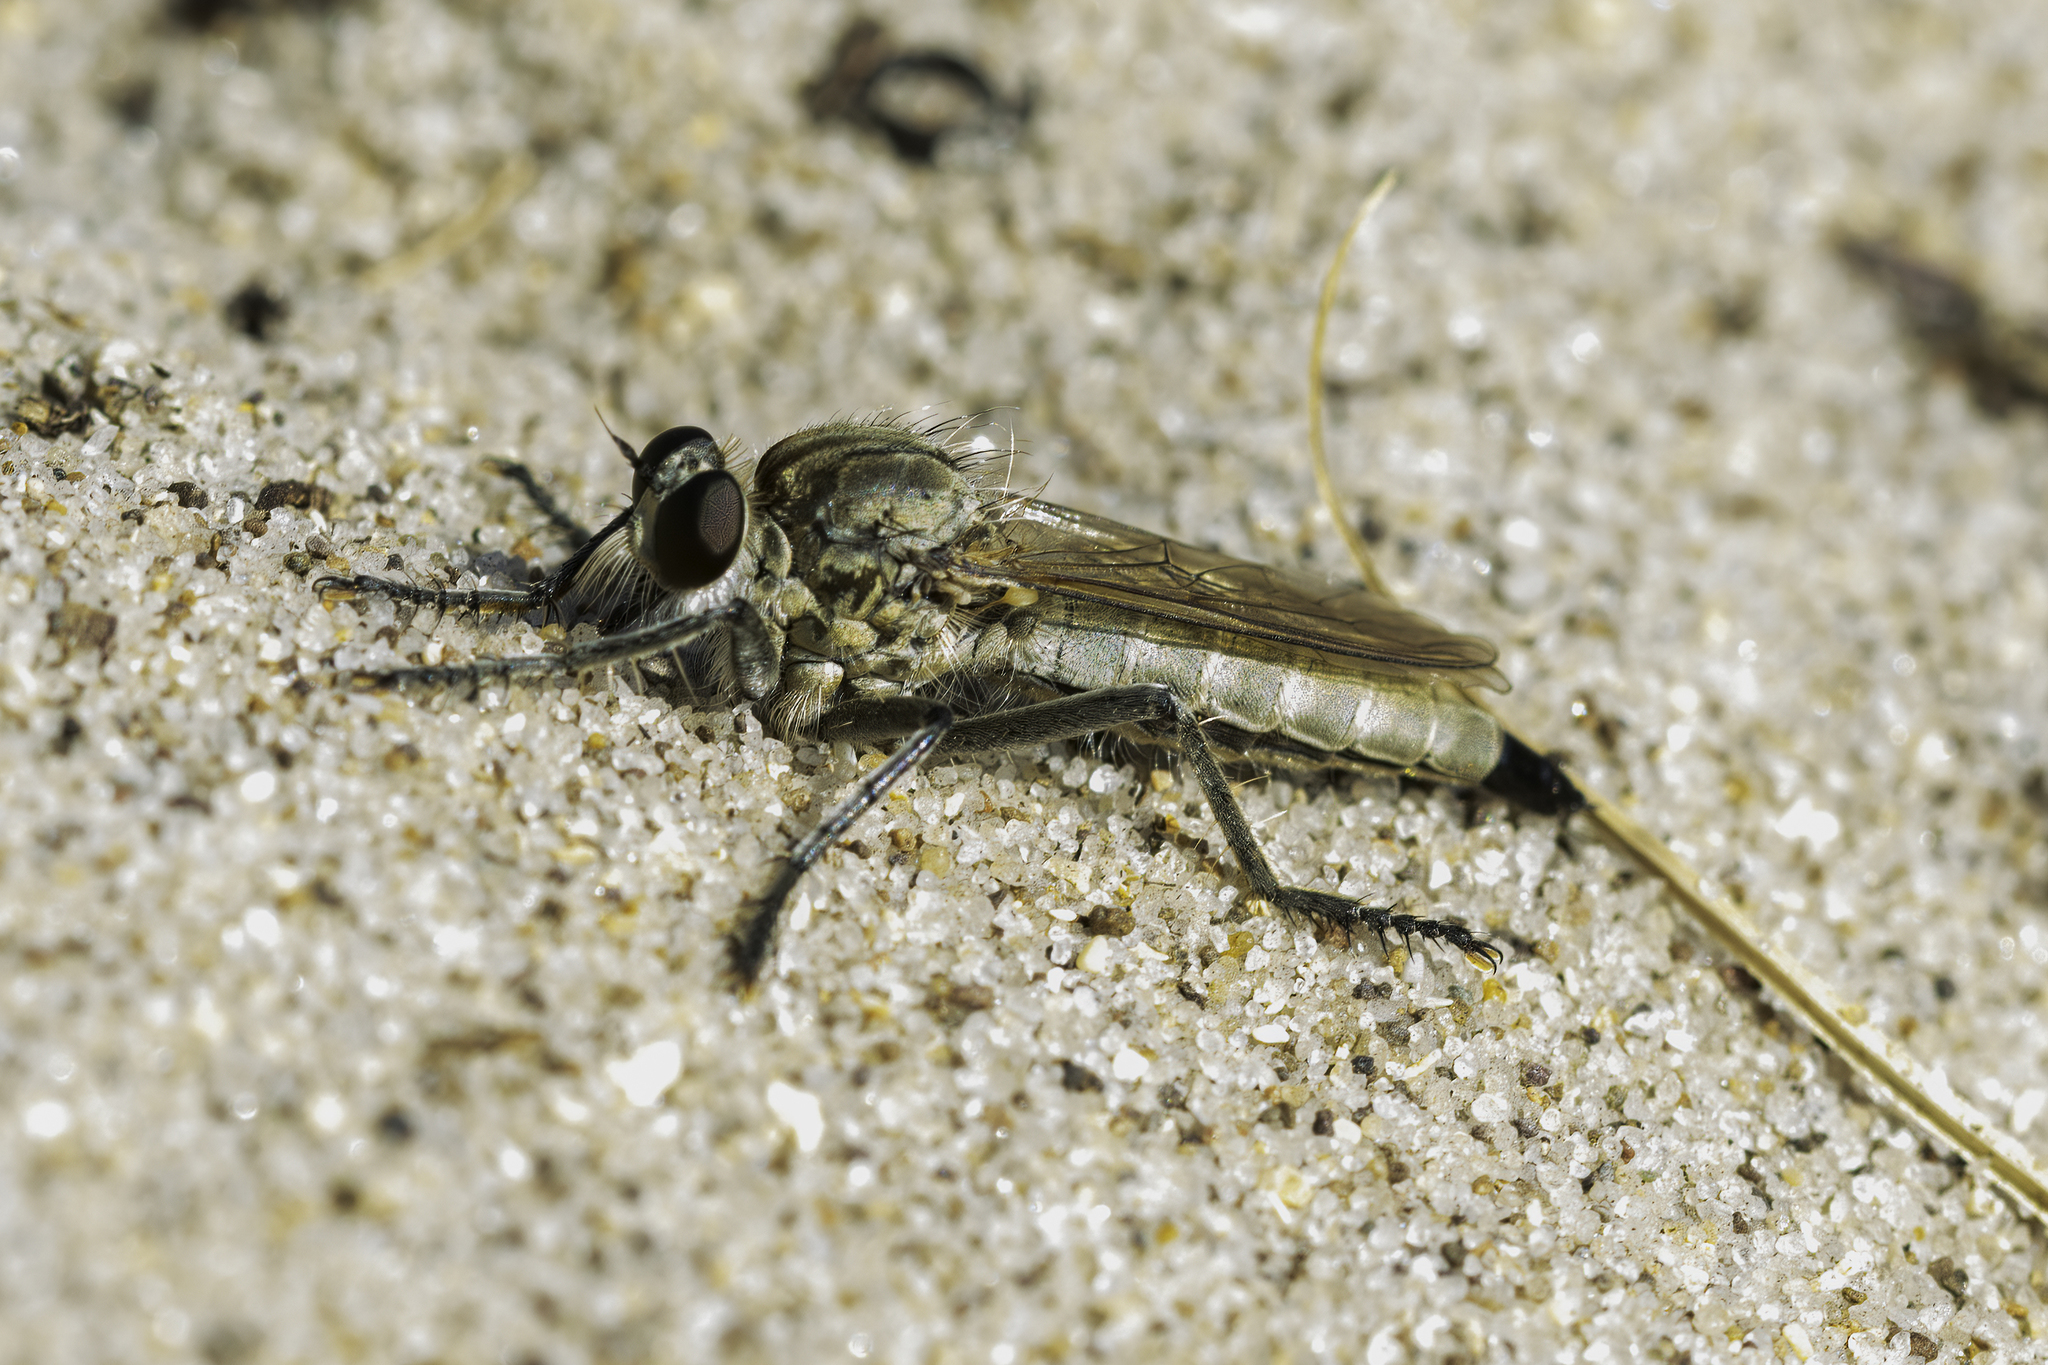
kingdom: Animalia
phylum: Arthropoda
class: Insecta
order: Diptera
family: Asilidae
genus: Philonicus
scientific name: Philonicus albiceps
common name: Dune robberfly
